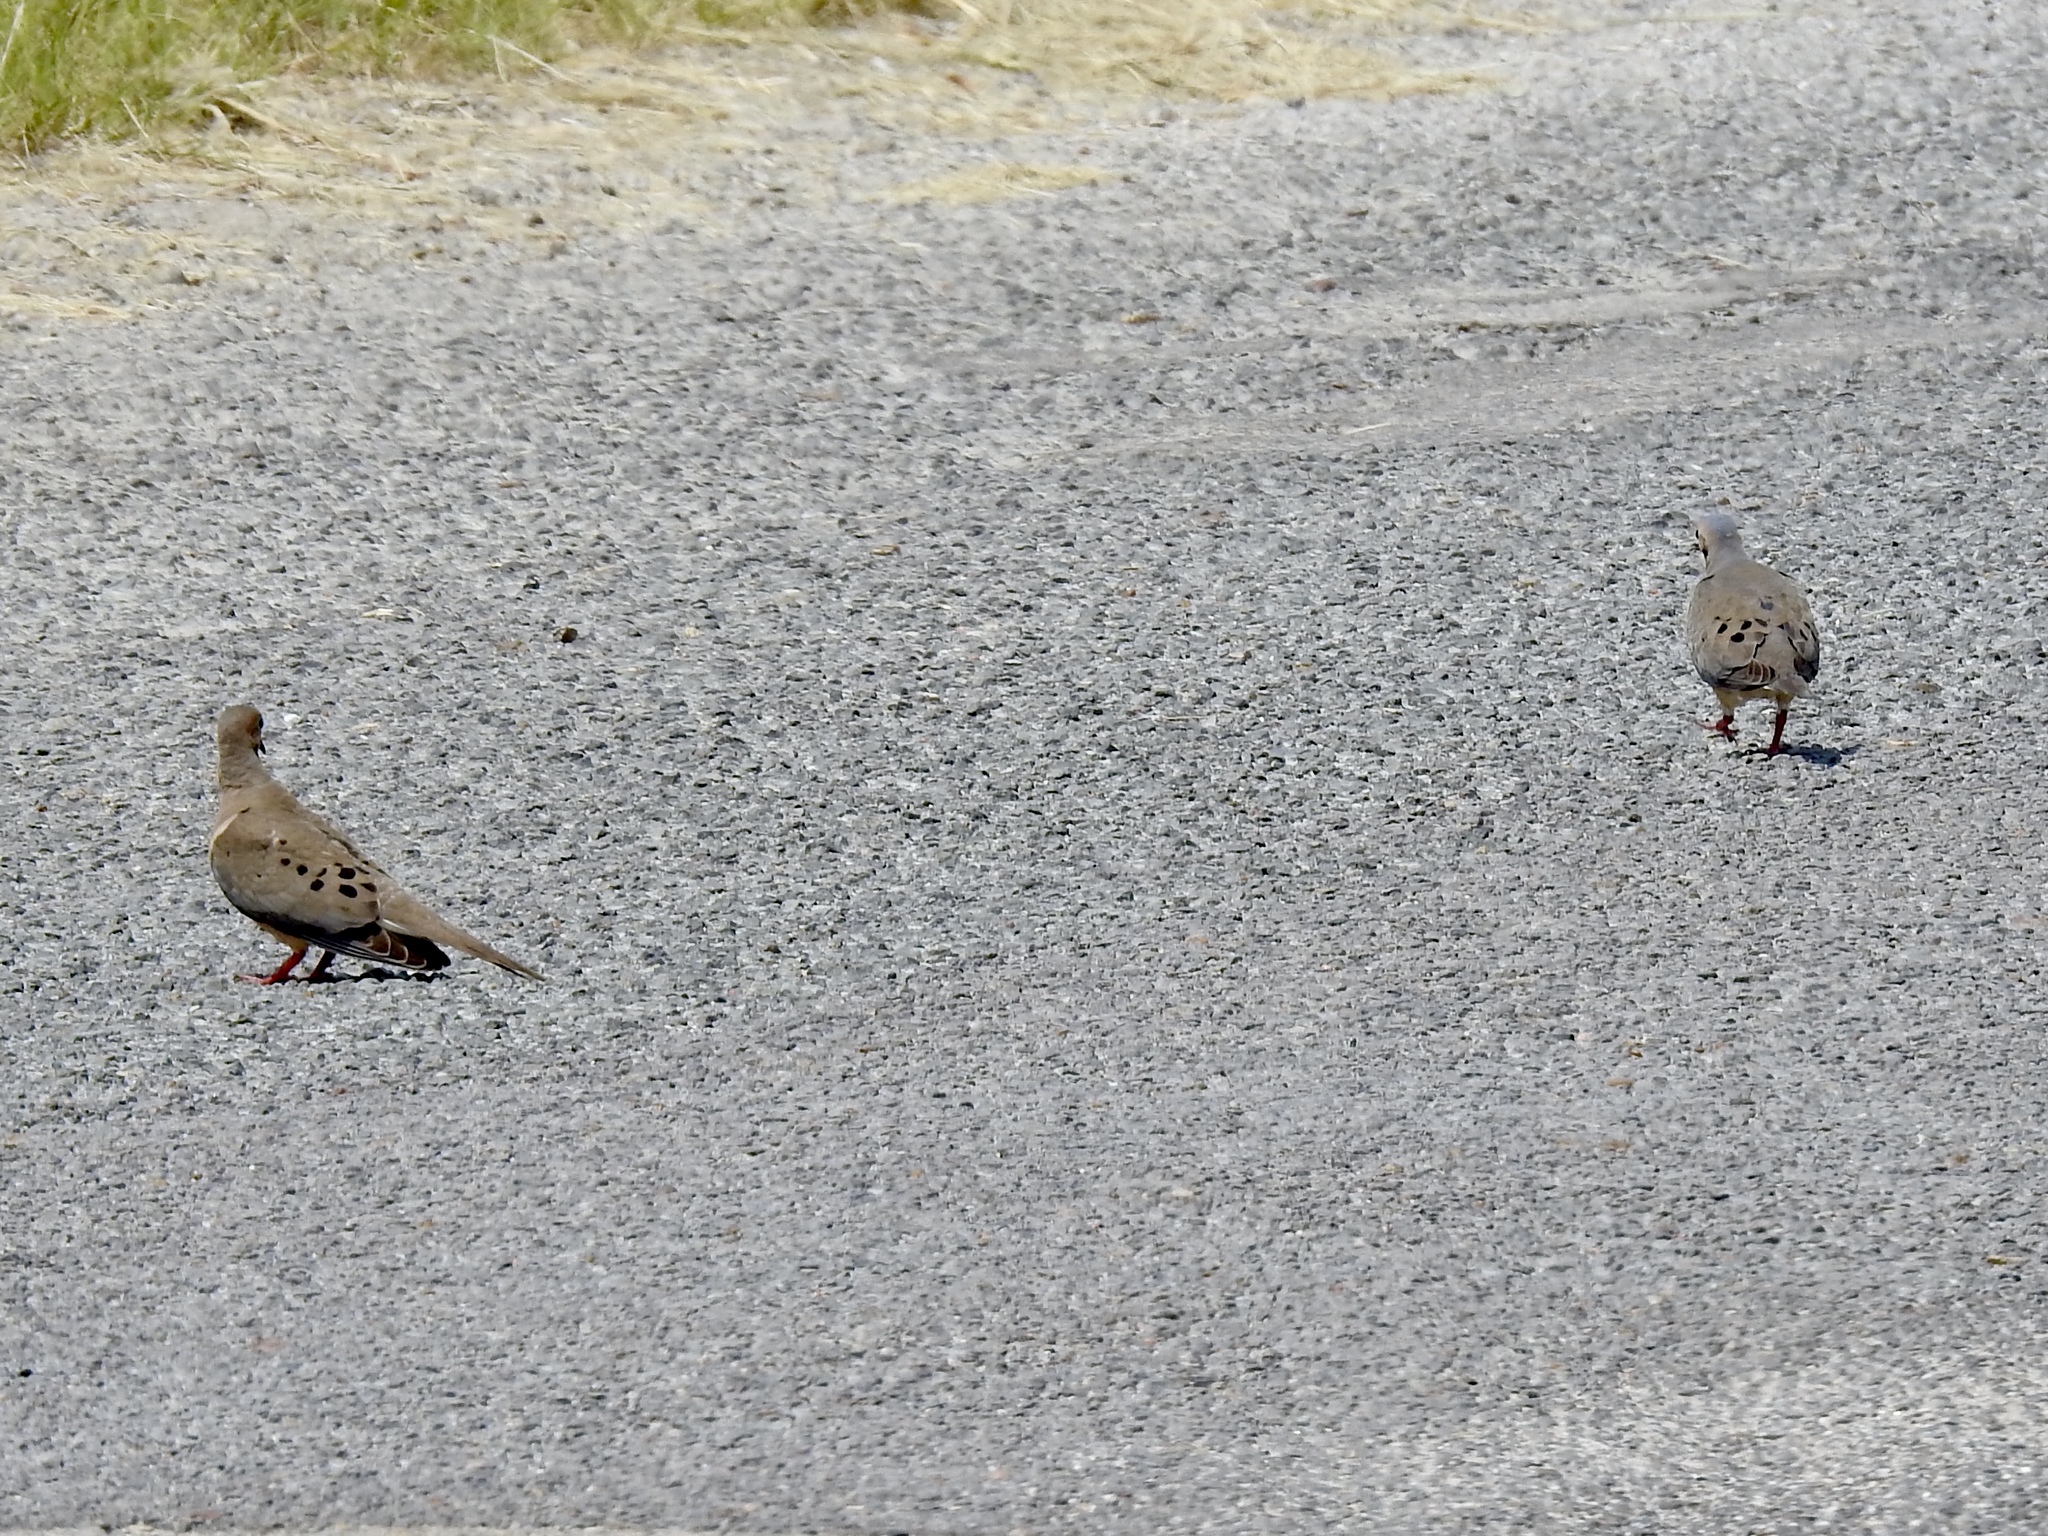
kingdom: Animalia
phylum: Chordata
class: Aves
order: Columbiformes
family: Columbidae
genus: Zenaida
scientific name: Zenaida macroura
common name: Mourning dove
